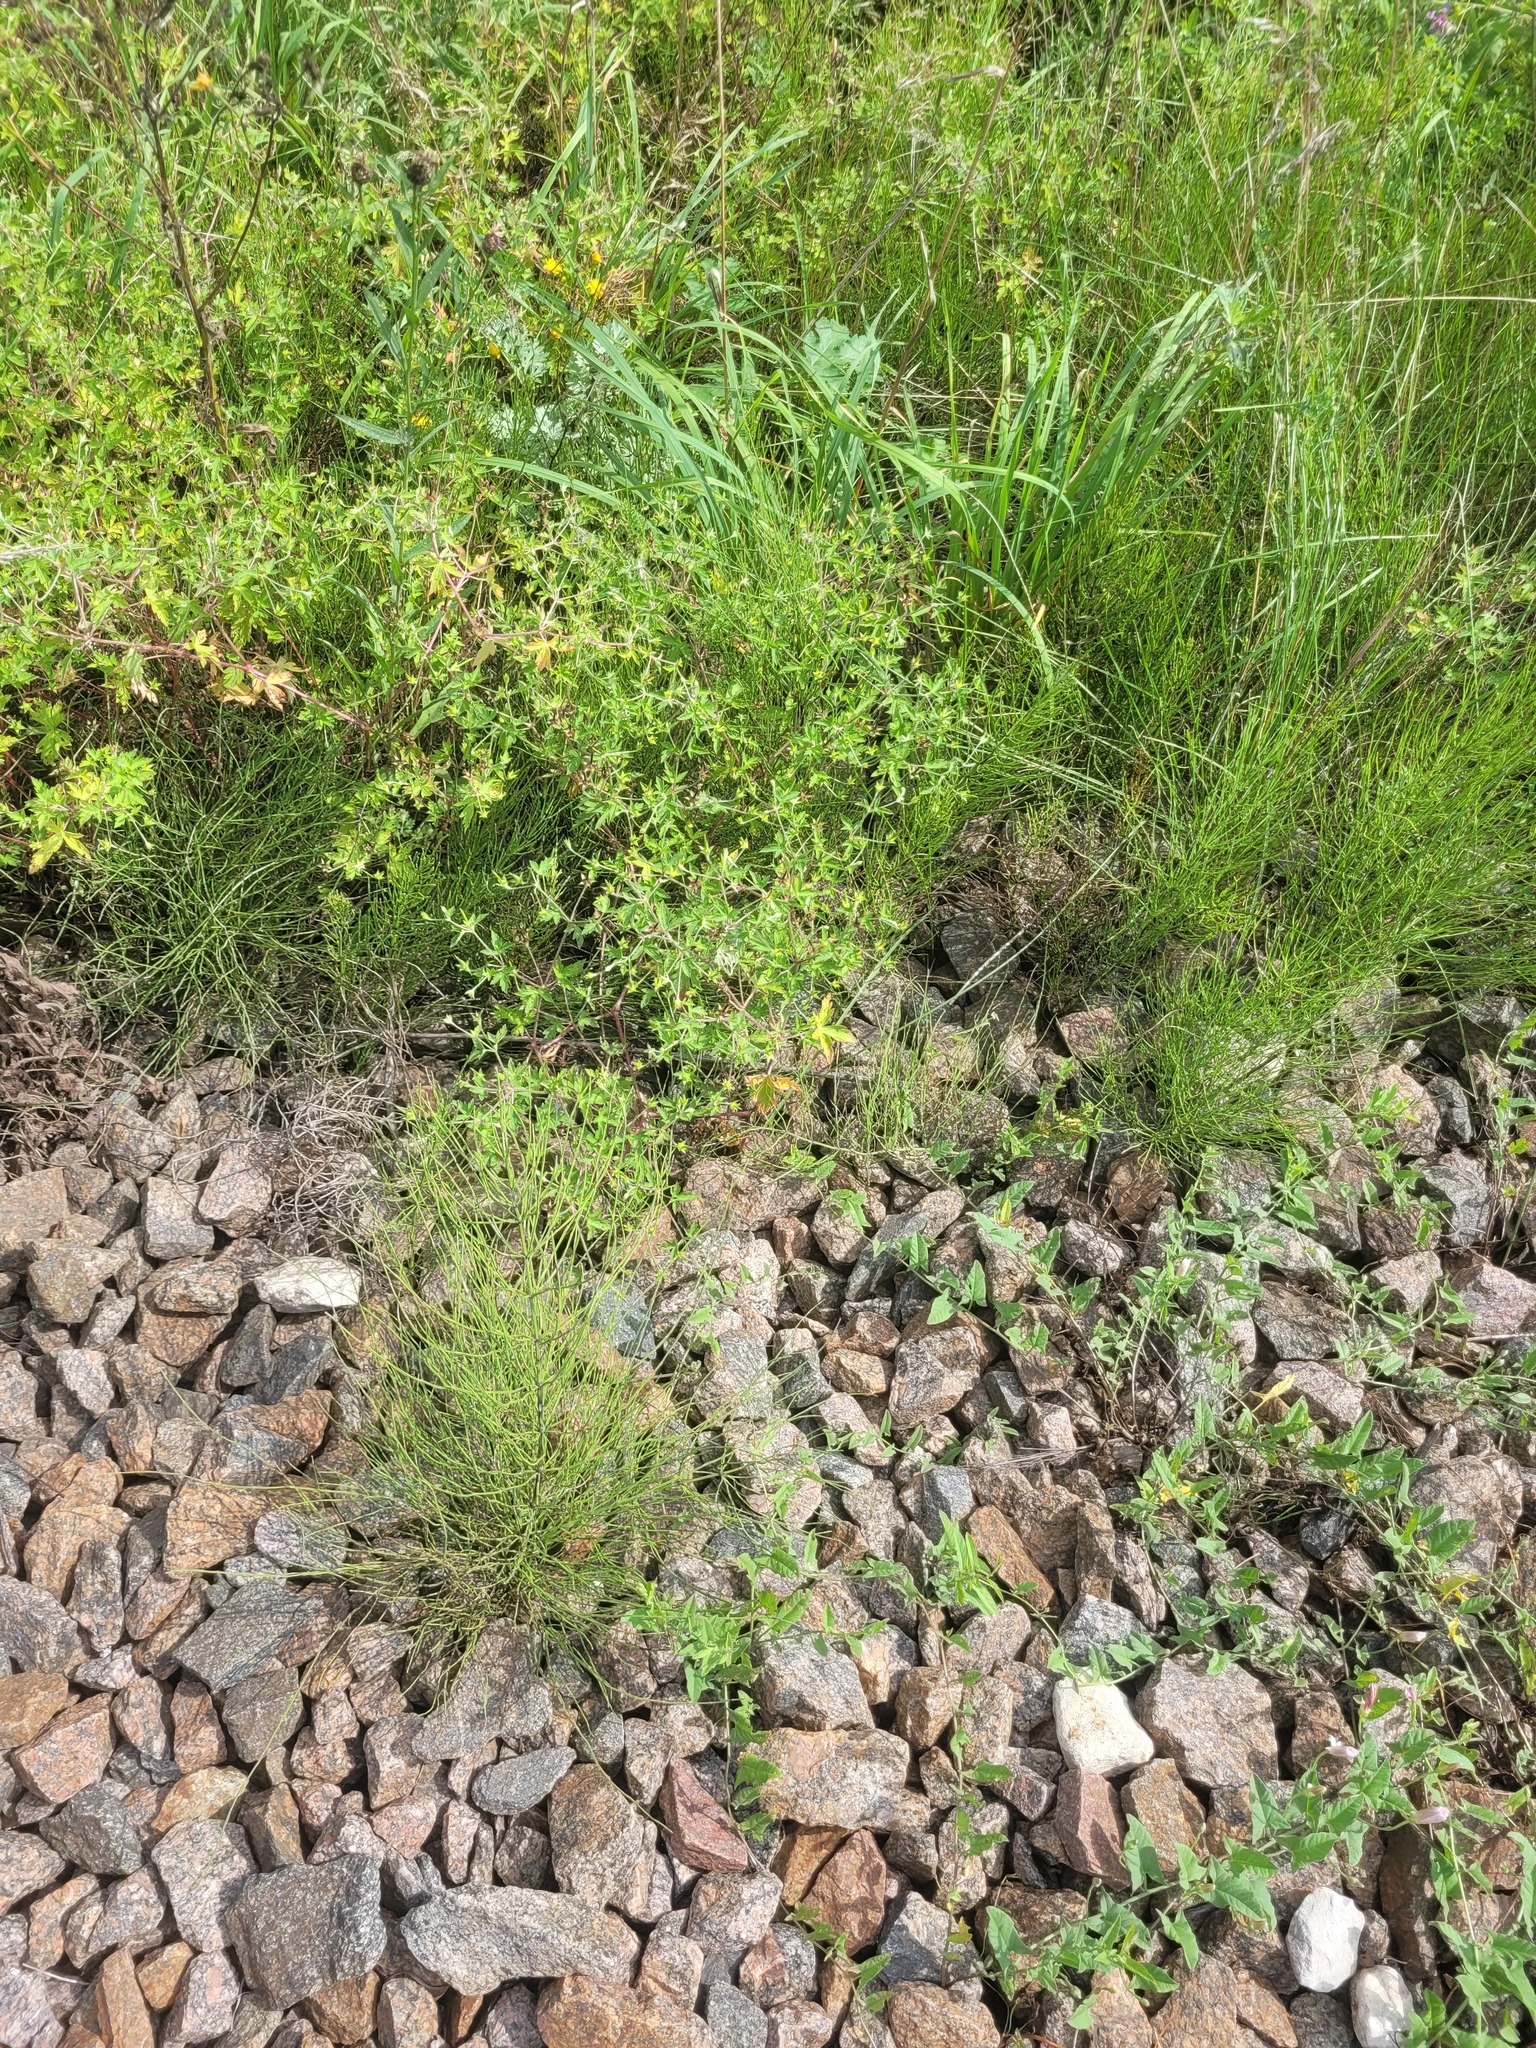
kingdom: Plantae
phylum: Tracheophyta
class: Magnoliopsida
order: Geraniales
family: Geraniaceae
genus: Geranium
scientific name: Geranium sibiricum
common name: Siberian crane's-bill
